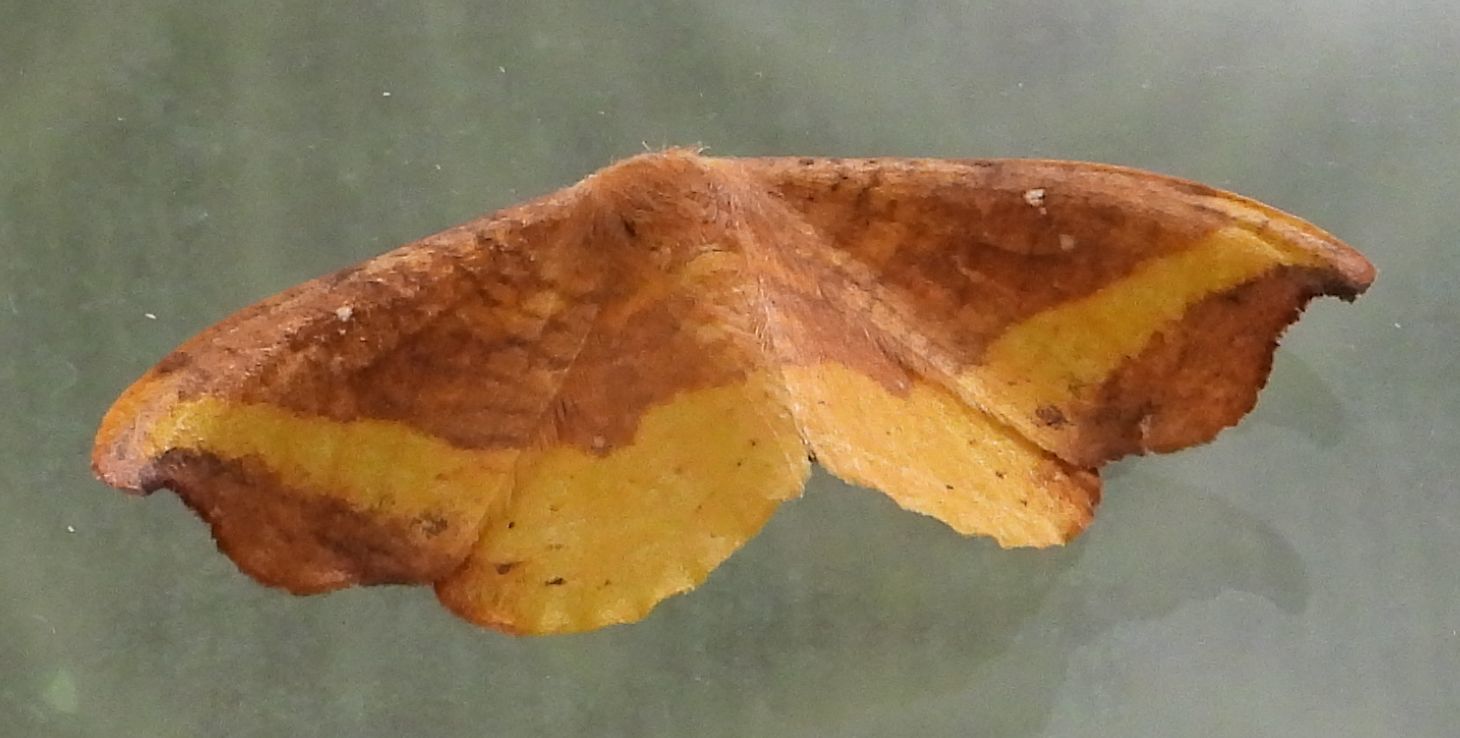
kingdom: Animalia
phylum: Arthropoda
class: Insecta
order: Lepidoptera
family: Drepanidae
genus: Oreta
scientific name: Oreta rosea
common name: Rose hooktip
